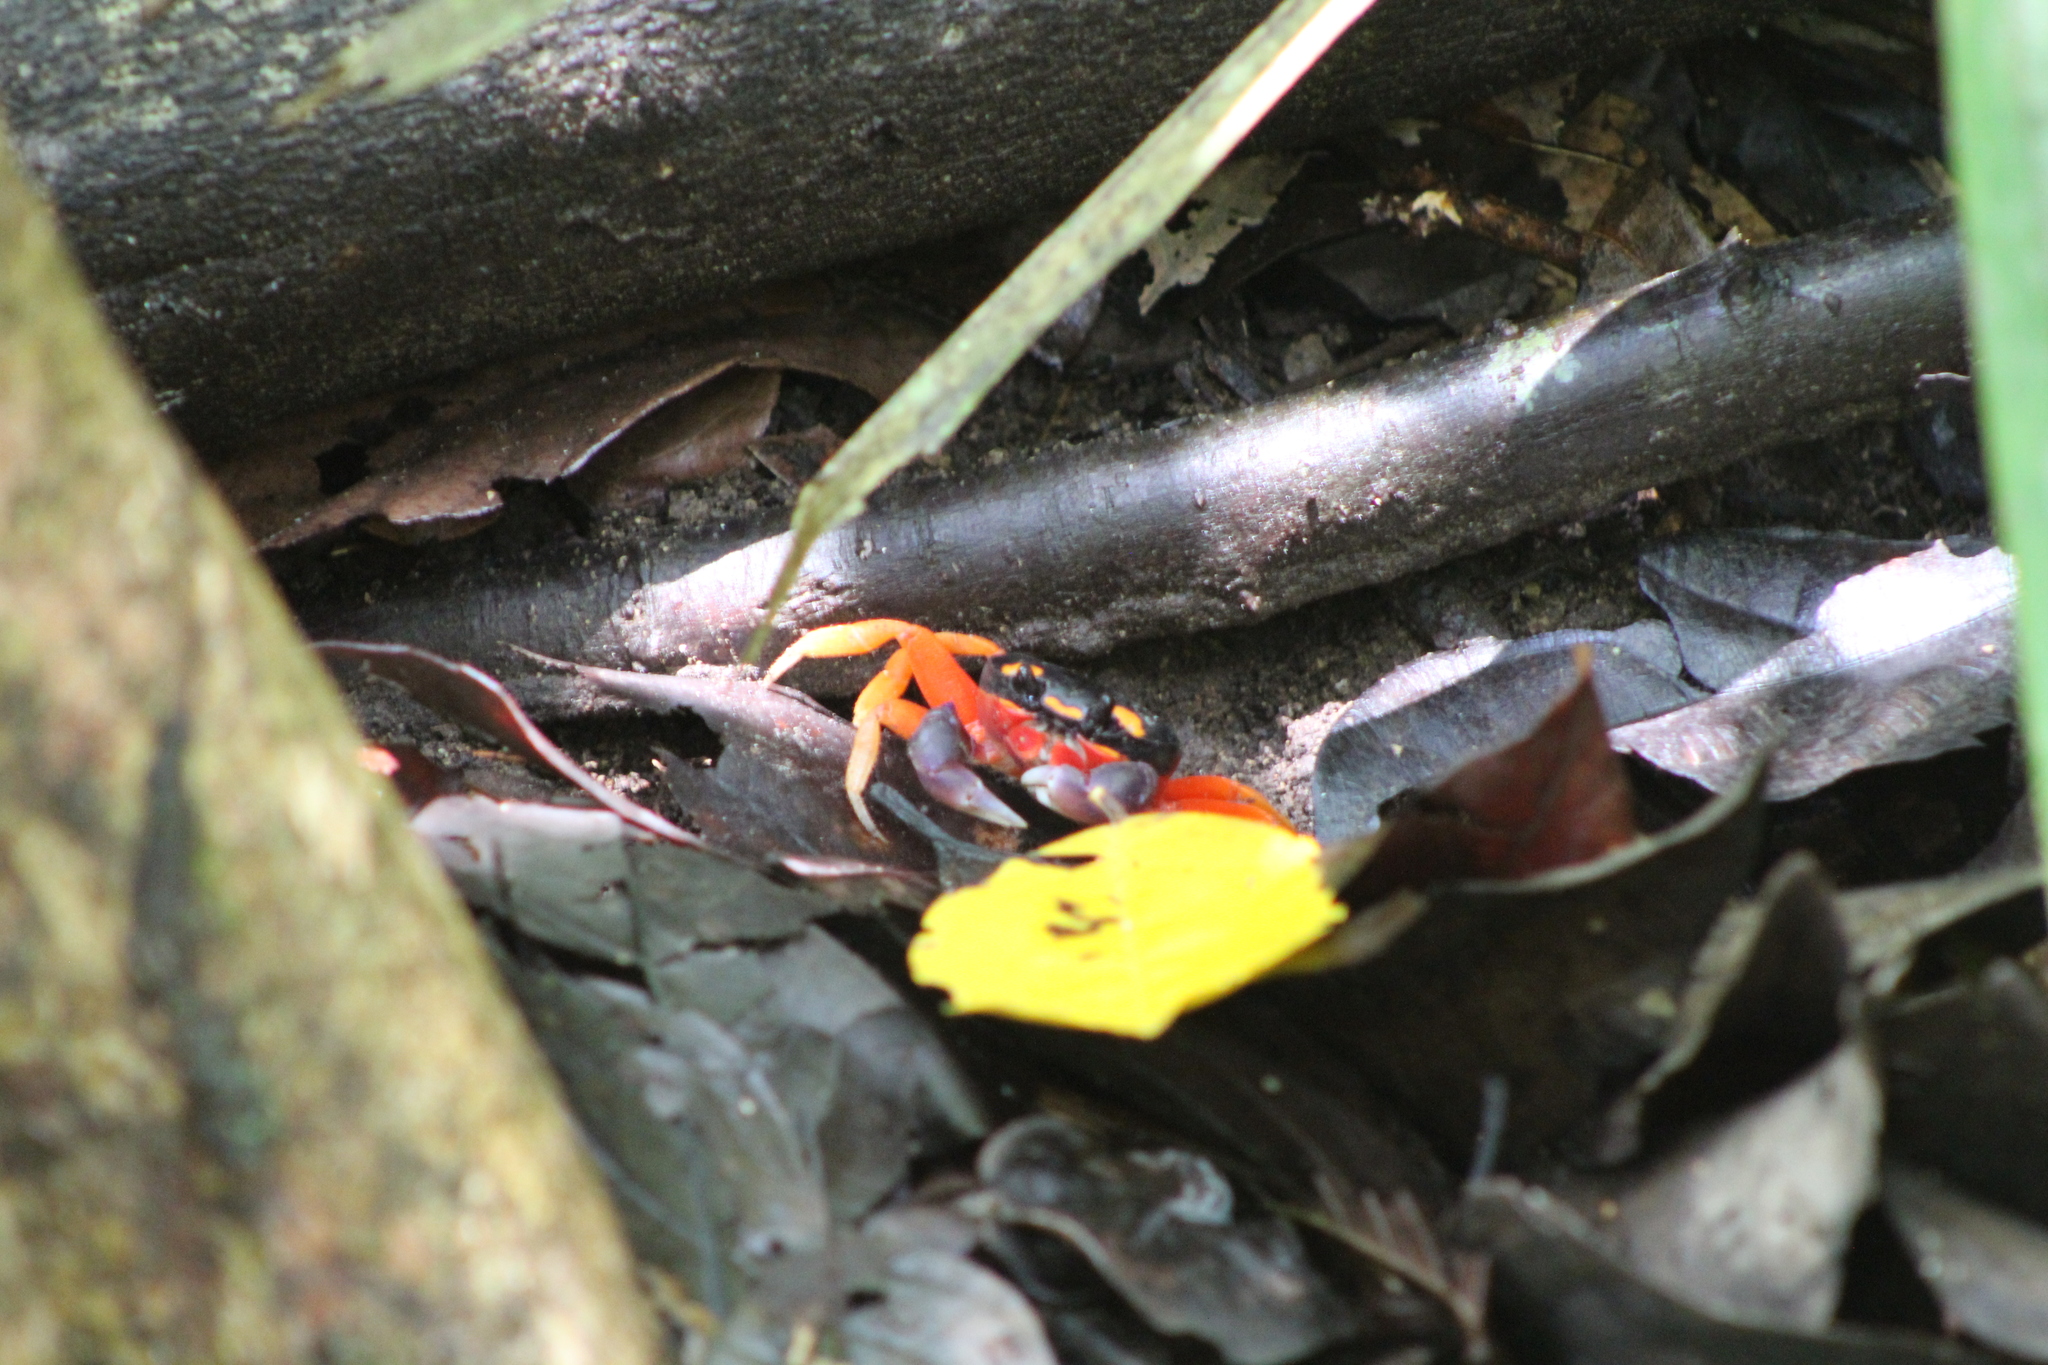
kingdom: Animalia
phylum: Arthropoda
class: Malacostraca
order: Decapoda
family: Gecarcinidae
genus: Gecarcinus
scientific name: Gecarcinus quadratus
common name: Halloween crab
